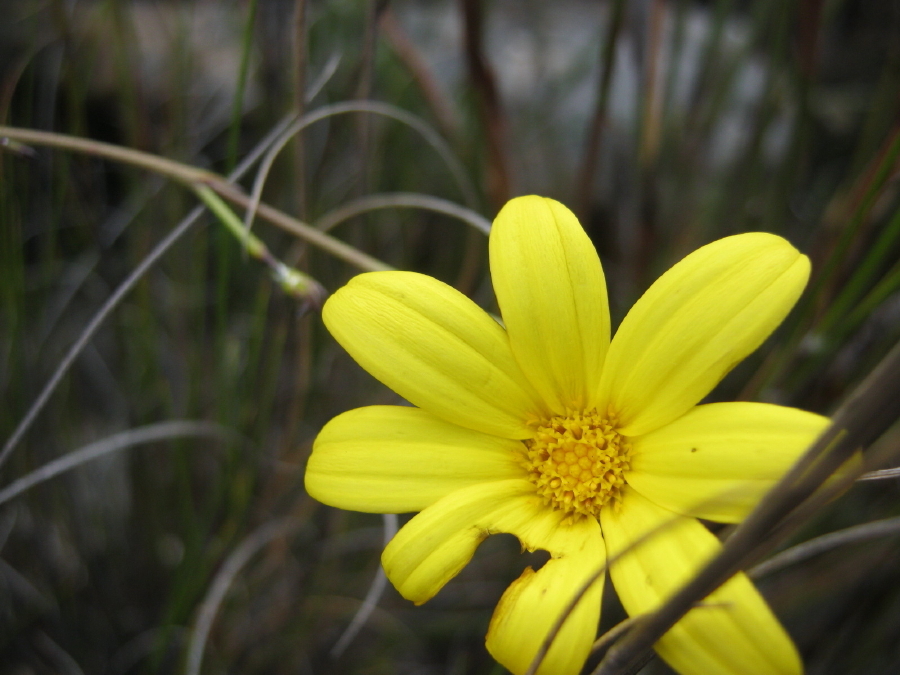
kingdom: Plantae
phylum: Tracheophyta
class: Magnoliopsida
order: Asterales
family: Asteraceae
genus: Osteospermum
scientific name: Osteospermum asperulum
